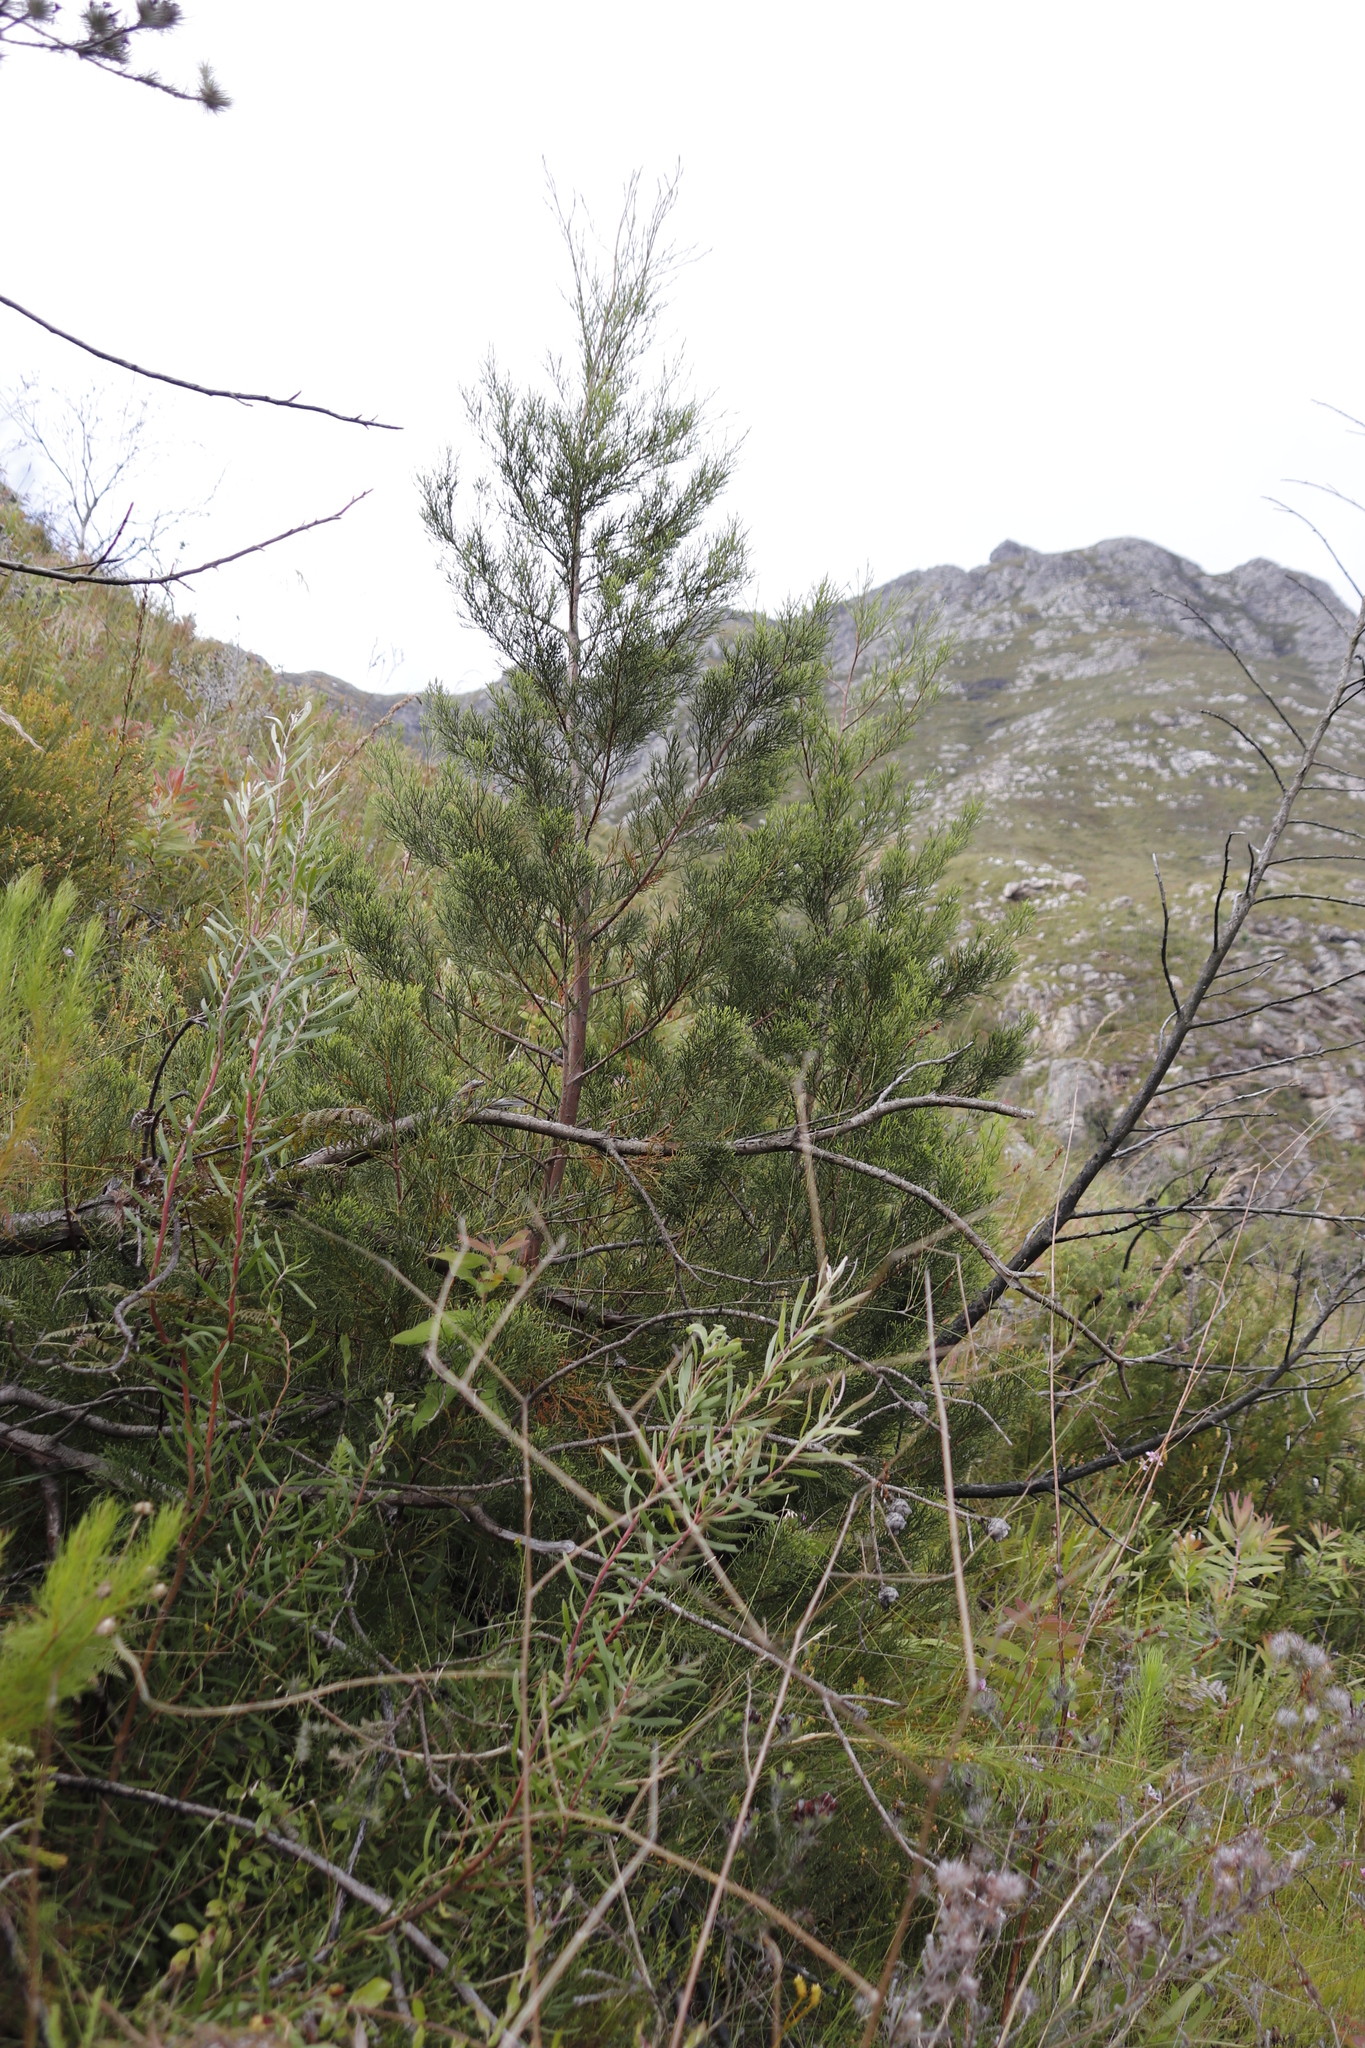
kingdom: Plantae
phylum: Tracheophyta
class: Pinopsida
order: Pinales
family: Cupressaceae
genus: Widdringtonia
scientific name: Widdringtonia nodiflora
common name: Cape cypress
